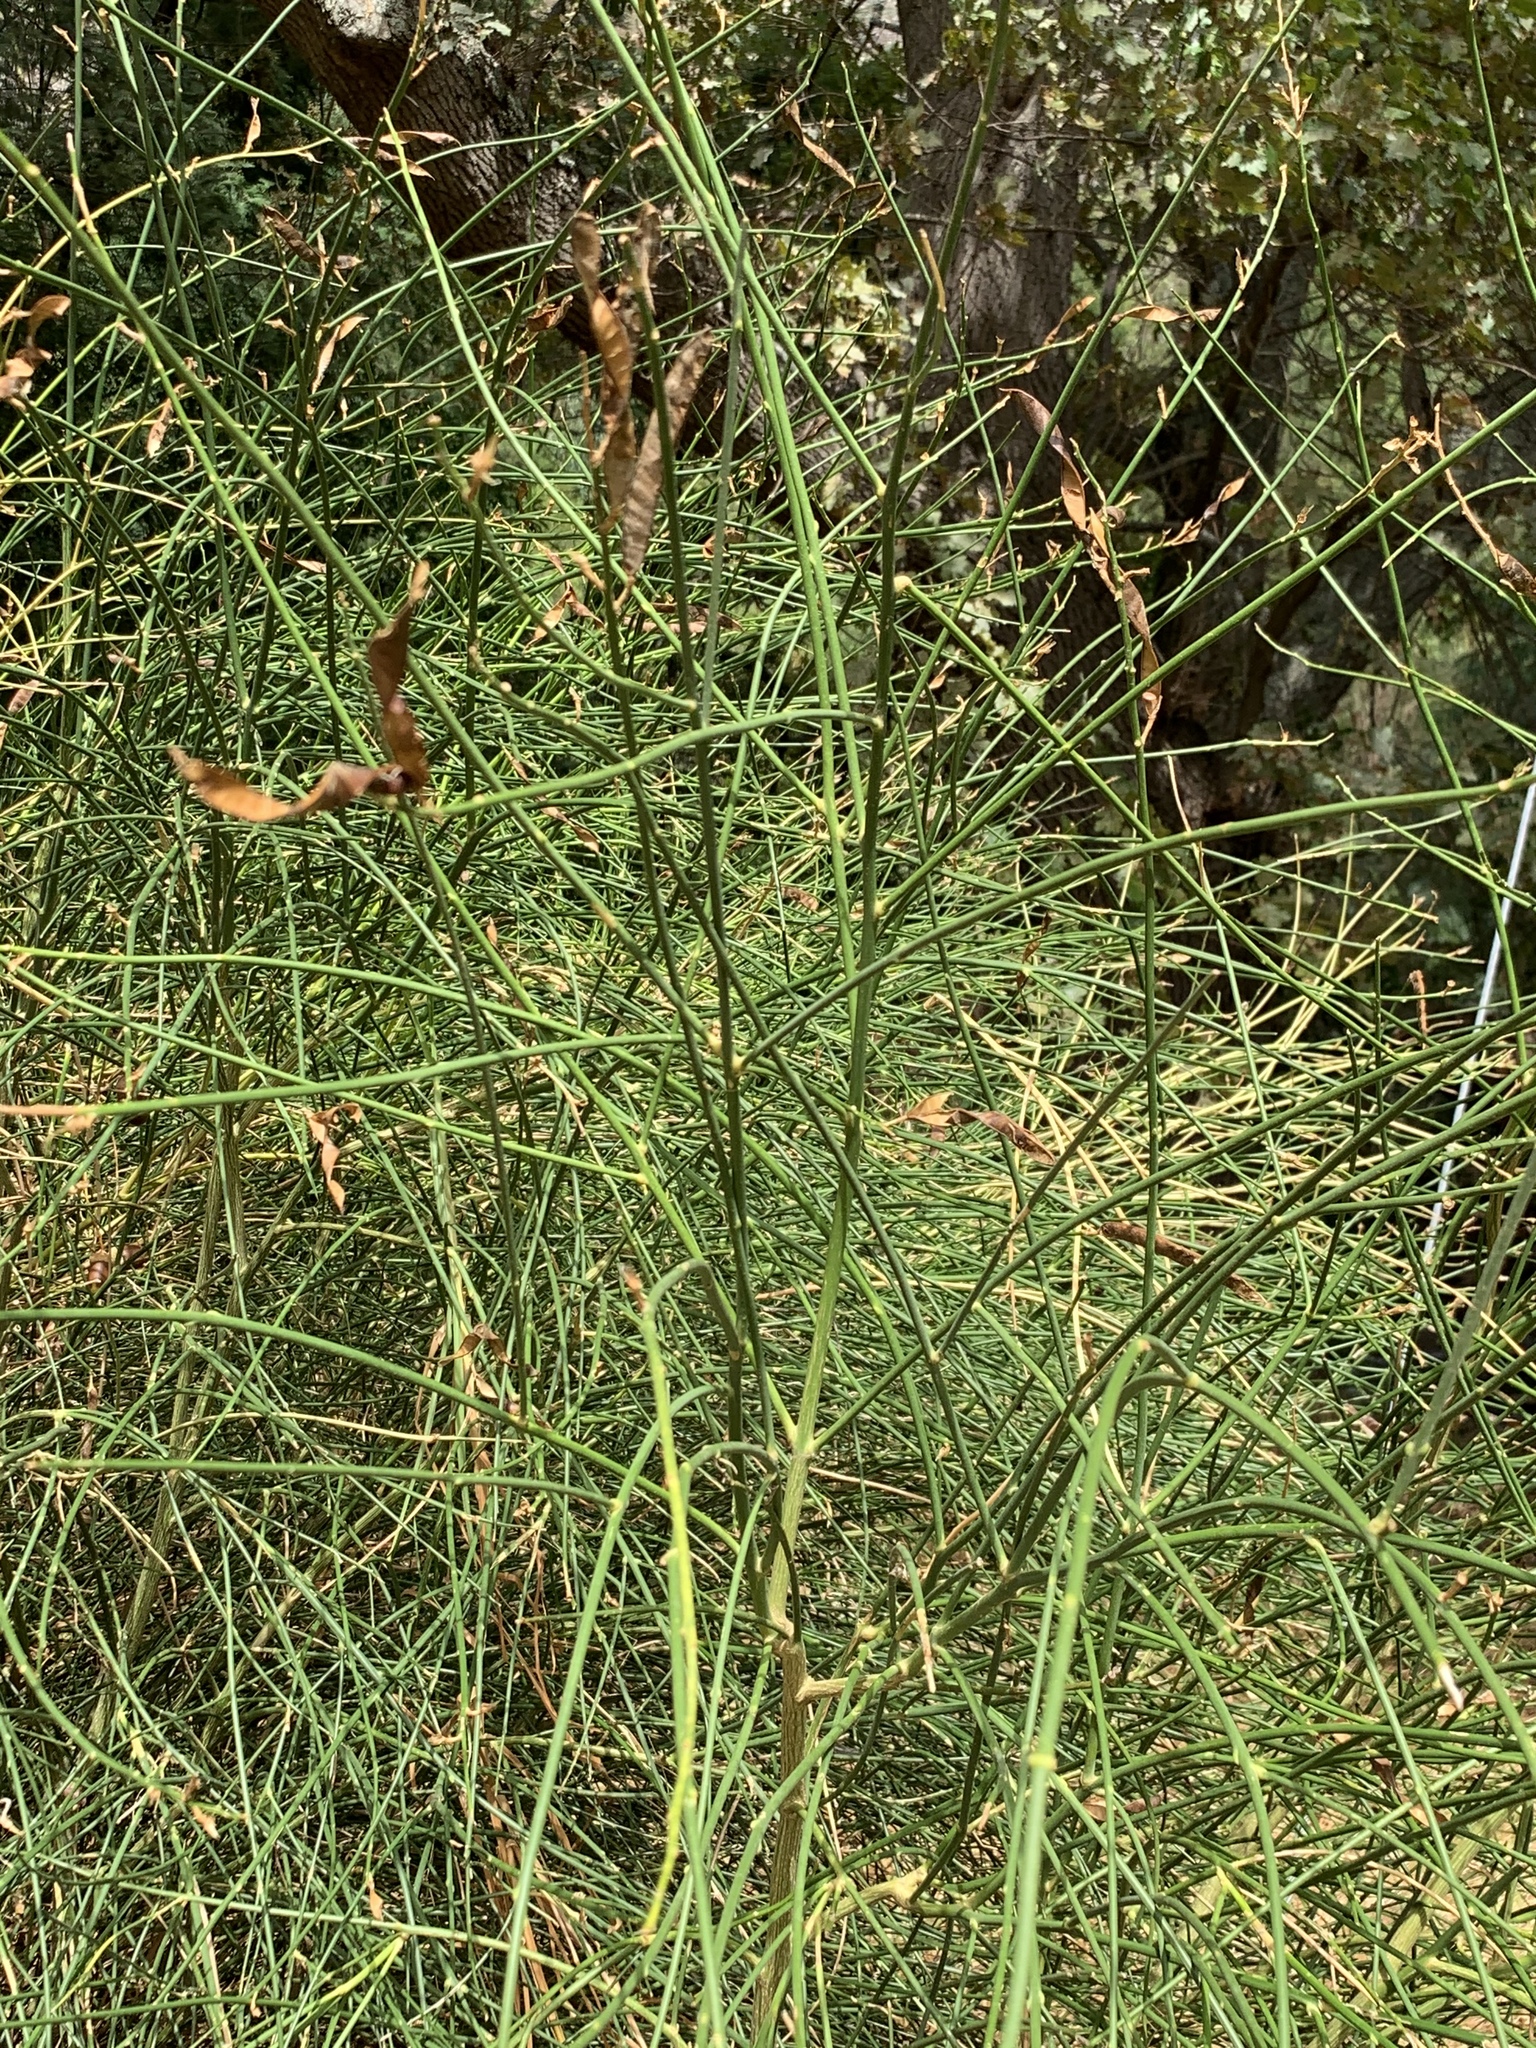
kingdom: Plantae
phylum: Tracheophyta
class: Magnoliopsida
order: Fabales
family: Fabaceae
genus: Spartium
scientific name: Spartium junceum
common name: Spanish broom
